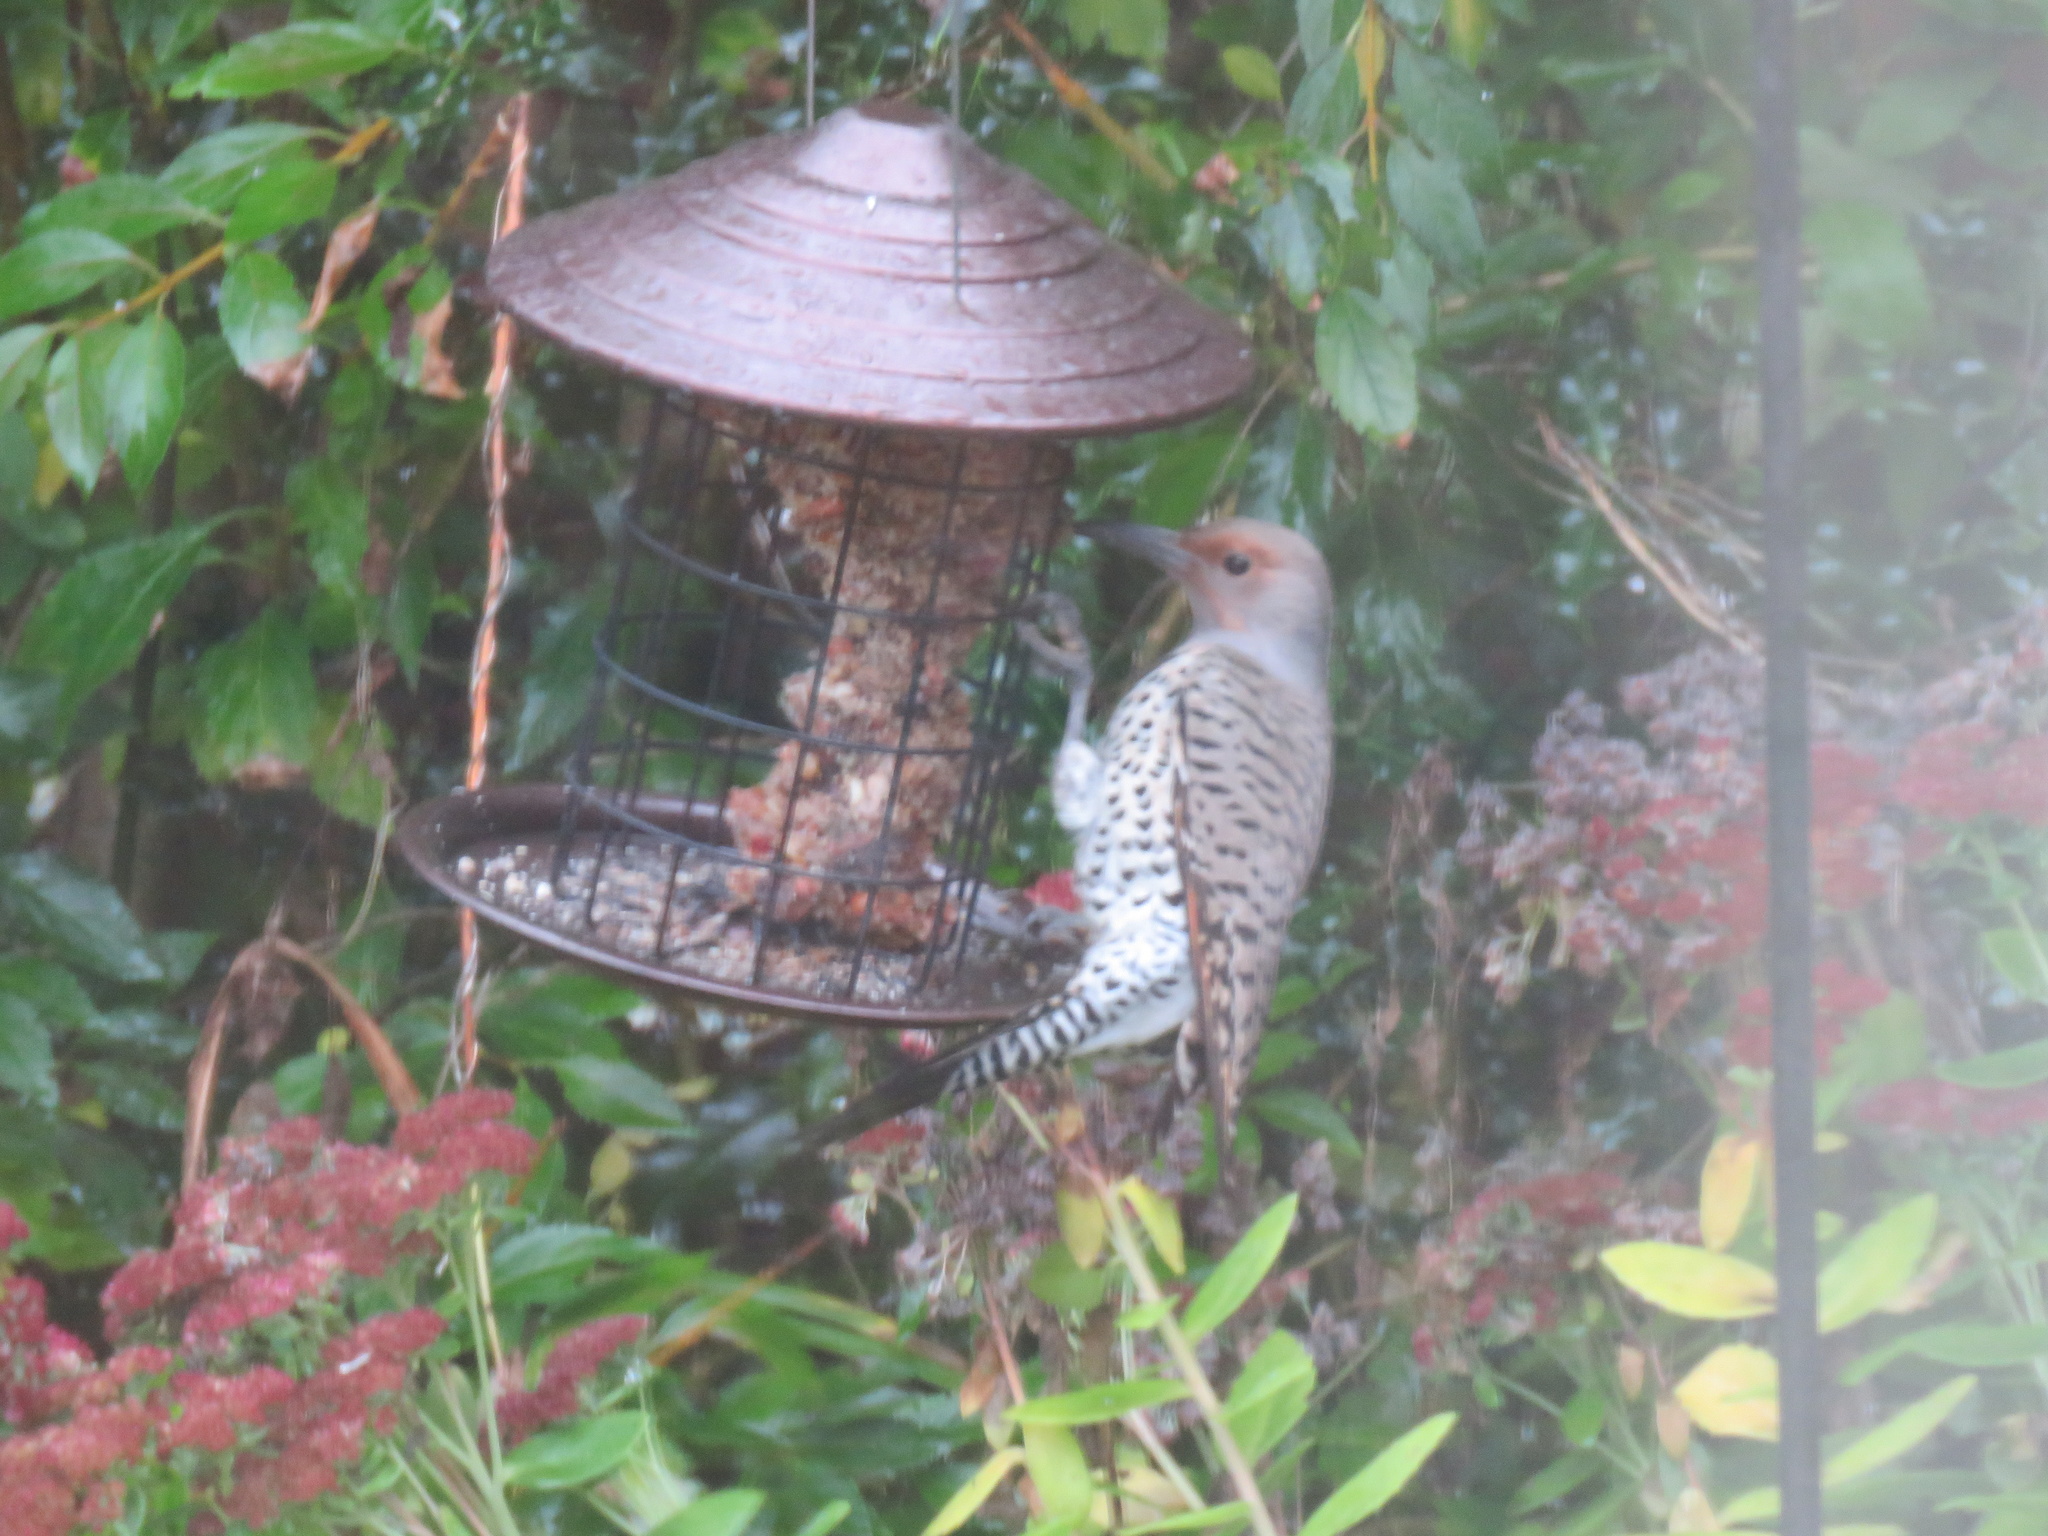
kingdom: Animalia
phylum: Chordata
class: Aves
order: Piciformes
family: Picidae
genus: Colaptes
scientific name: Colaptes auratus
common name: Northern flicker
